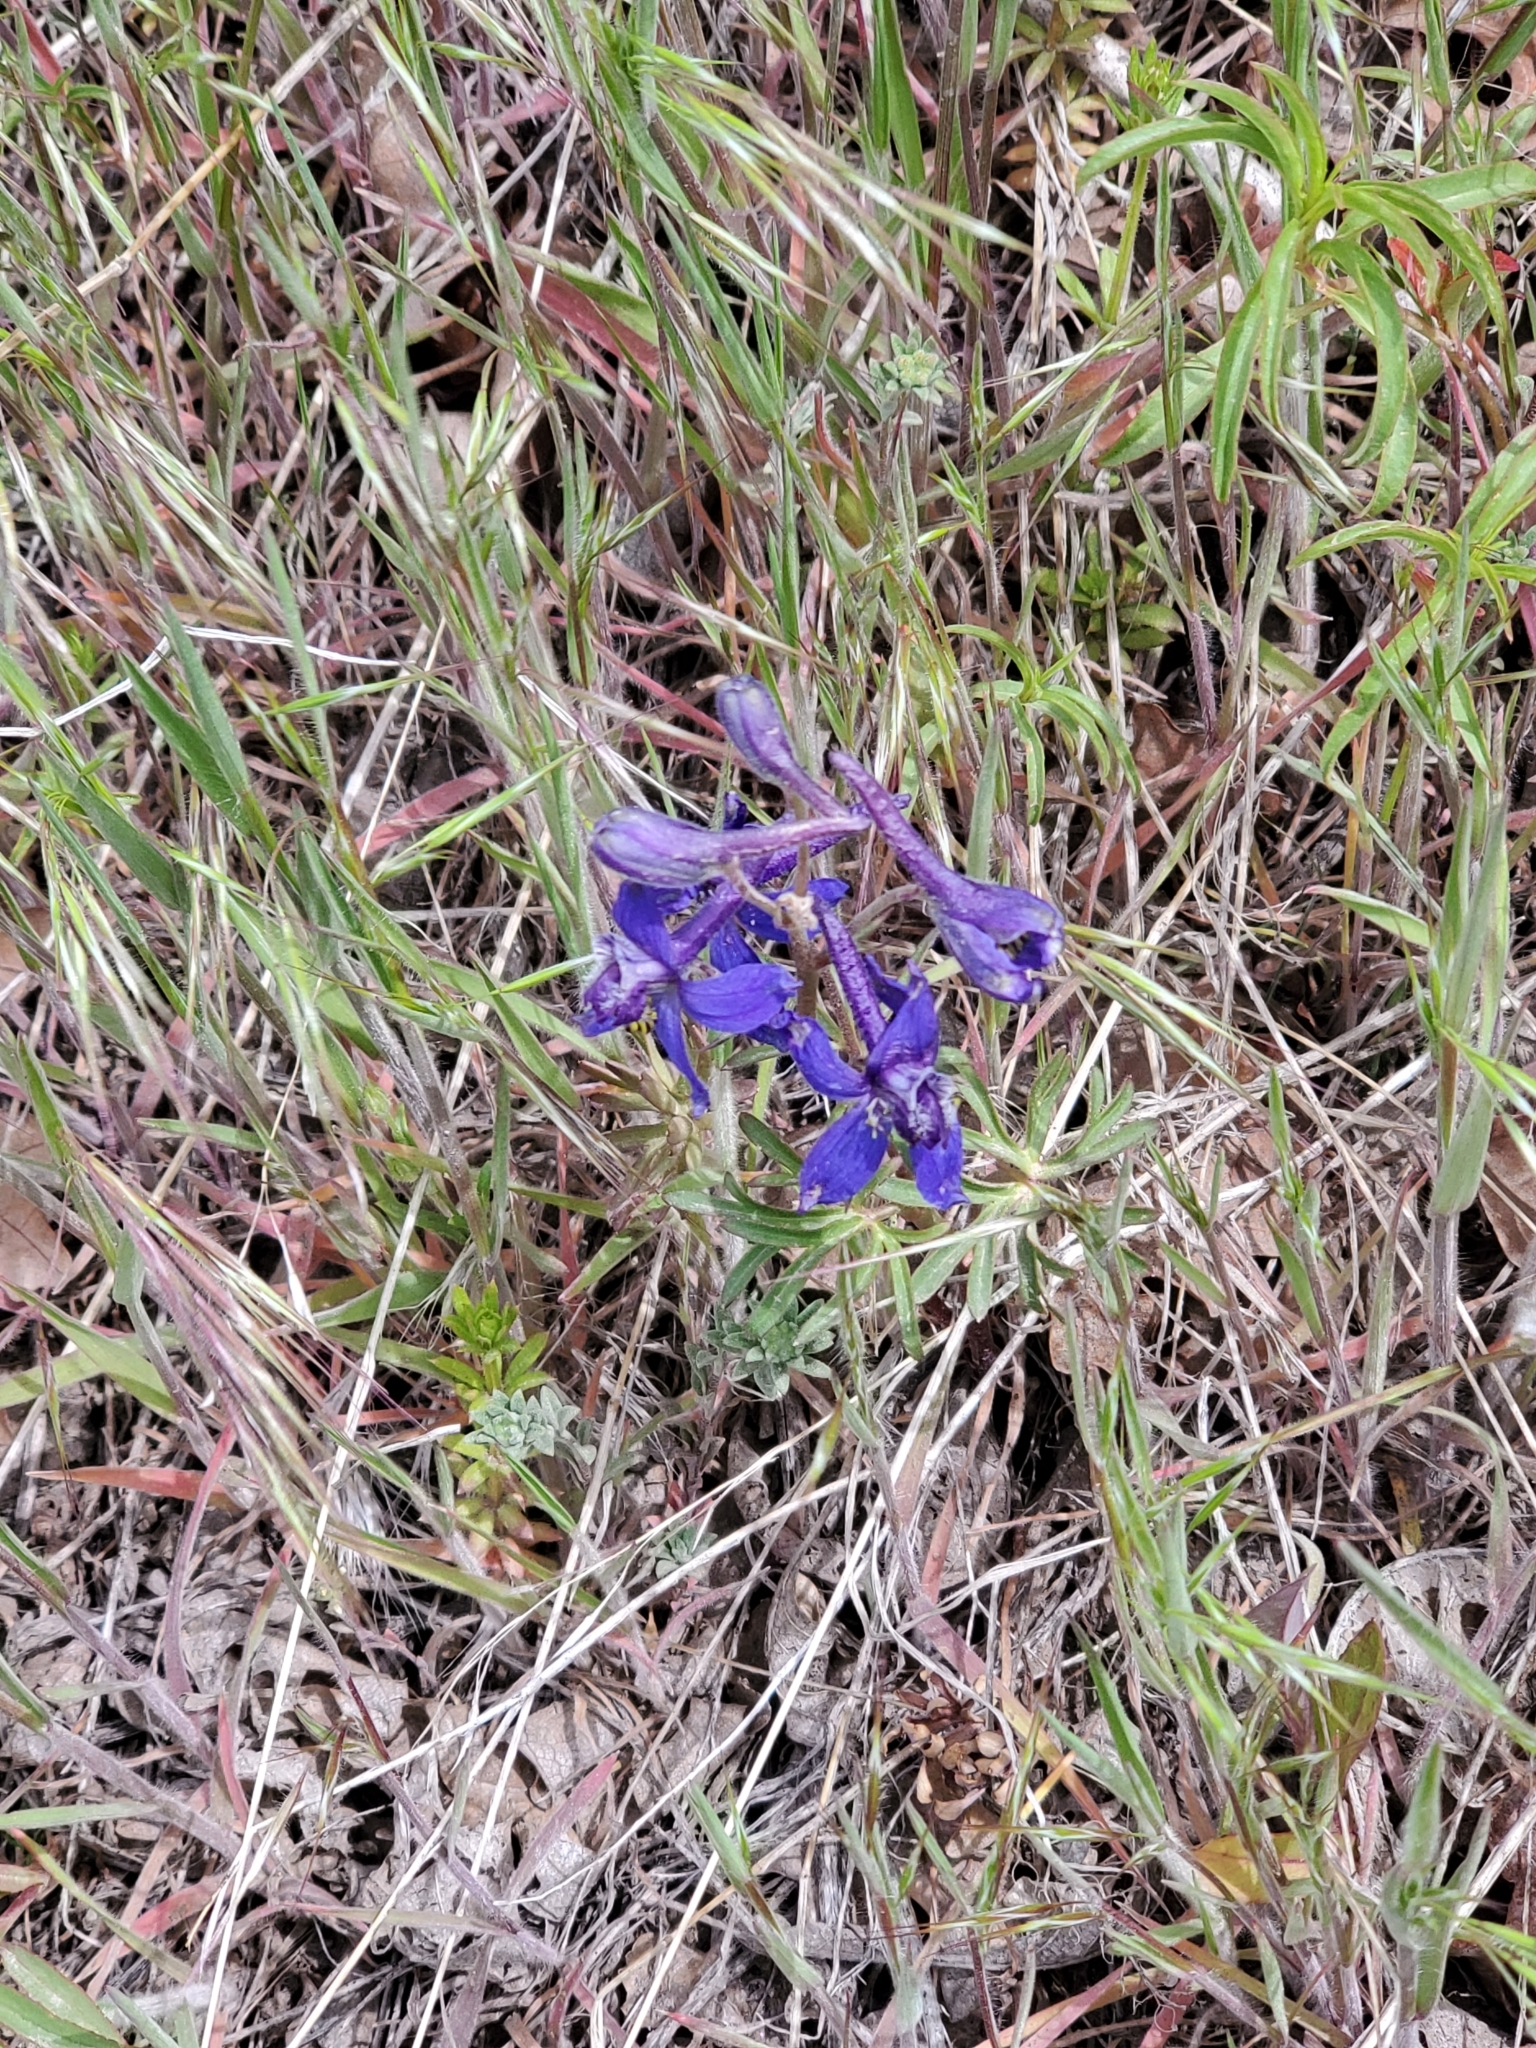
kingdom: Plantae
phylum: Tracheophyta
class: Magnoliopsida
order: Ranunculales
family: Ranunculaceae
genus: Delphinium
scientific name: Delphinium nuttallianum
